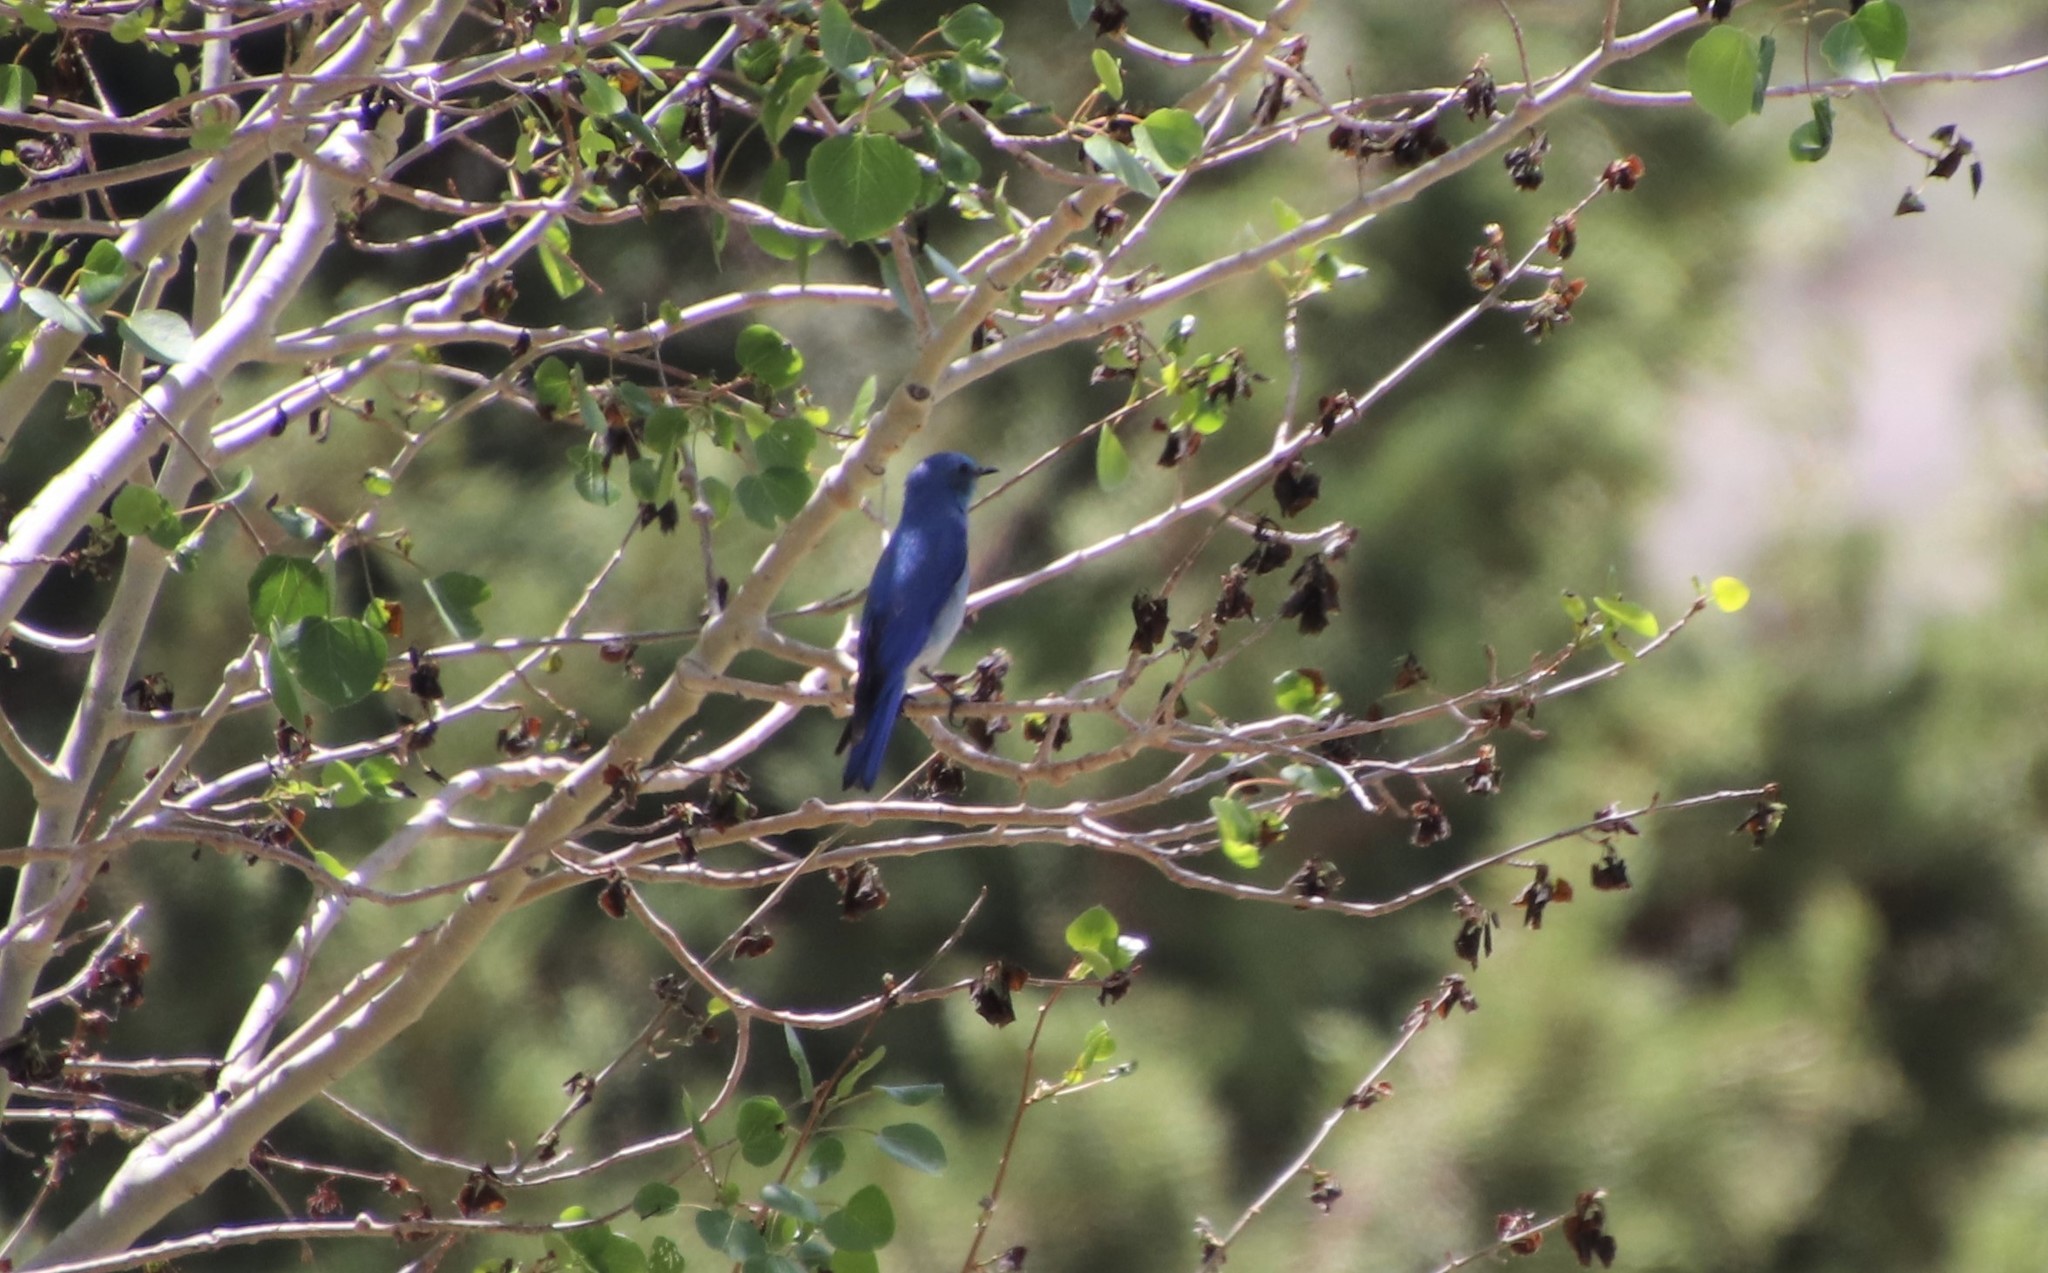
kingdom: Animalia
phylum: Chordata
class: Aves
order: Passeriformes
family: Turdidae
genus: Sialia
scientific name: Sialia currucoides
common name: Mountain bluebird
